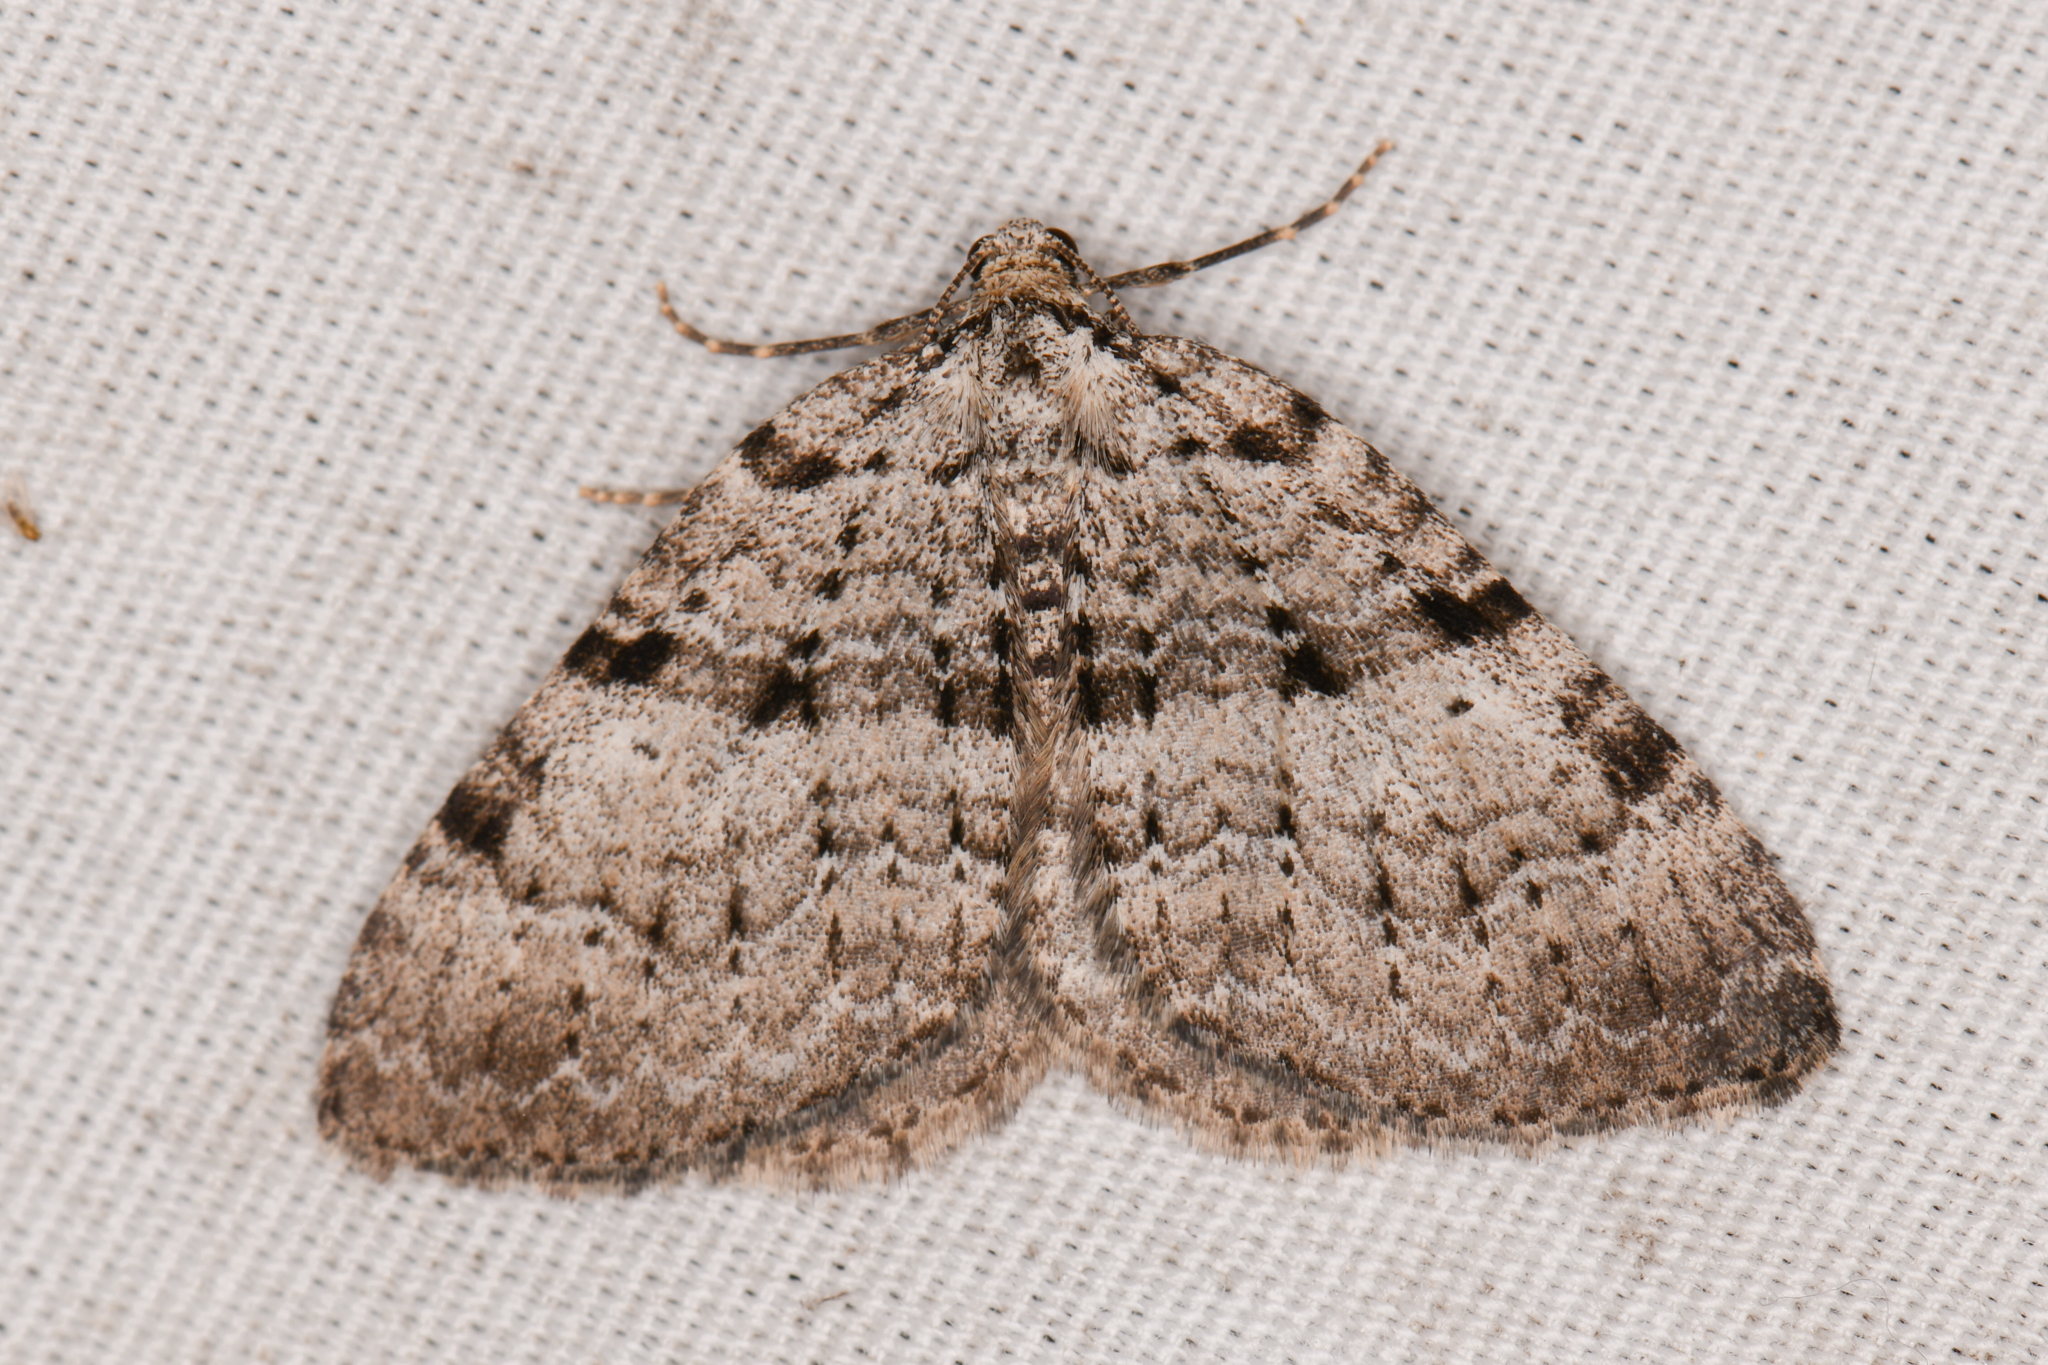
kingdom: Animalia
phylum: Arthropoda
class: Insecta
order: Lepidoptera
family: Geometridae
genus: Perizoma
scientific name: Perizoma curvilinea
